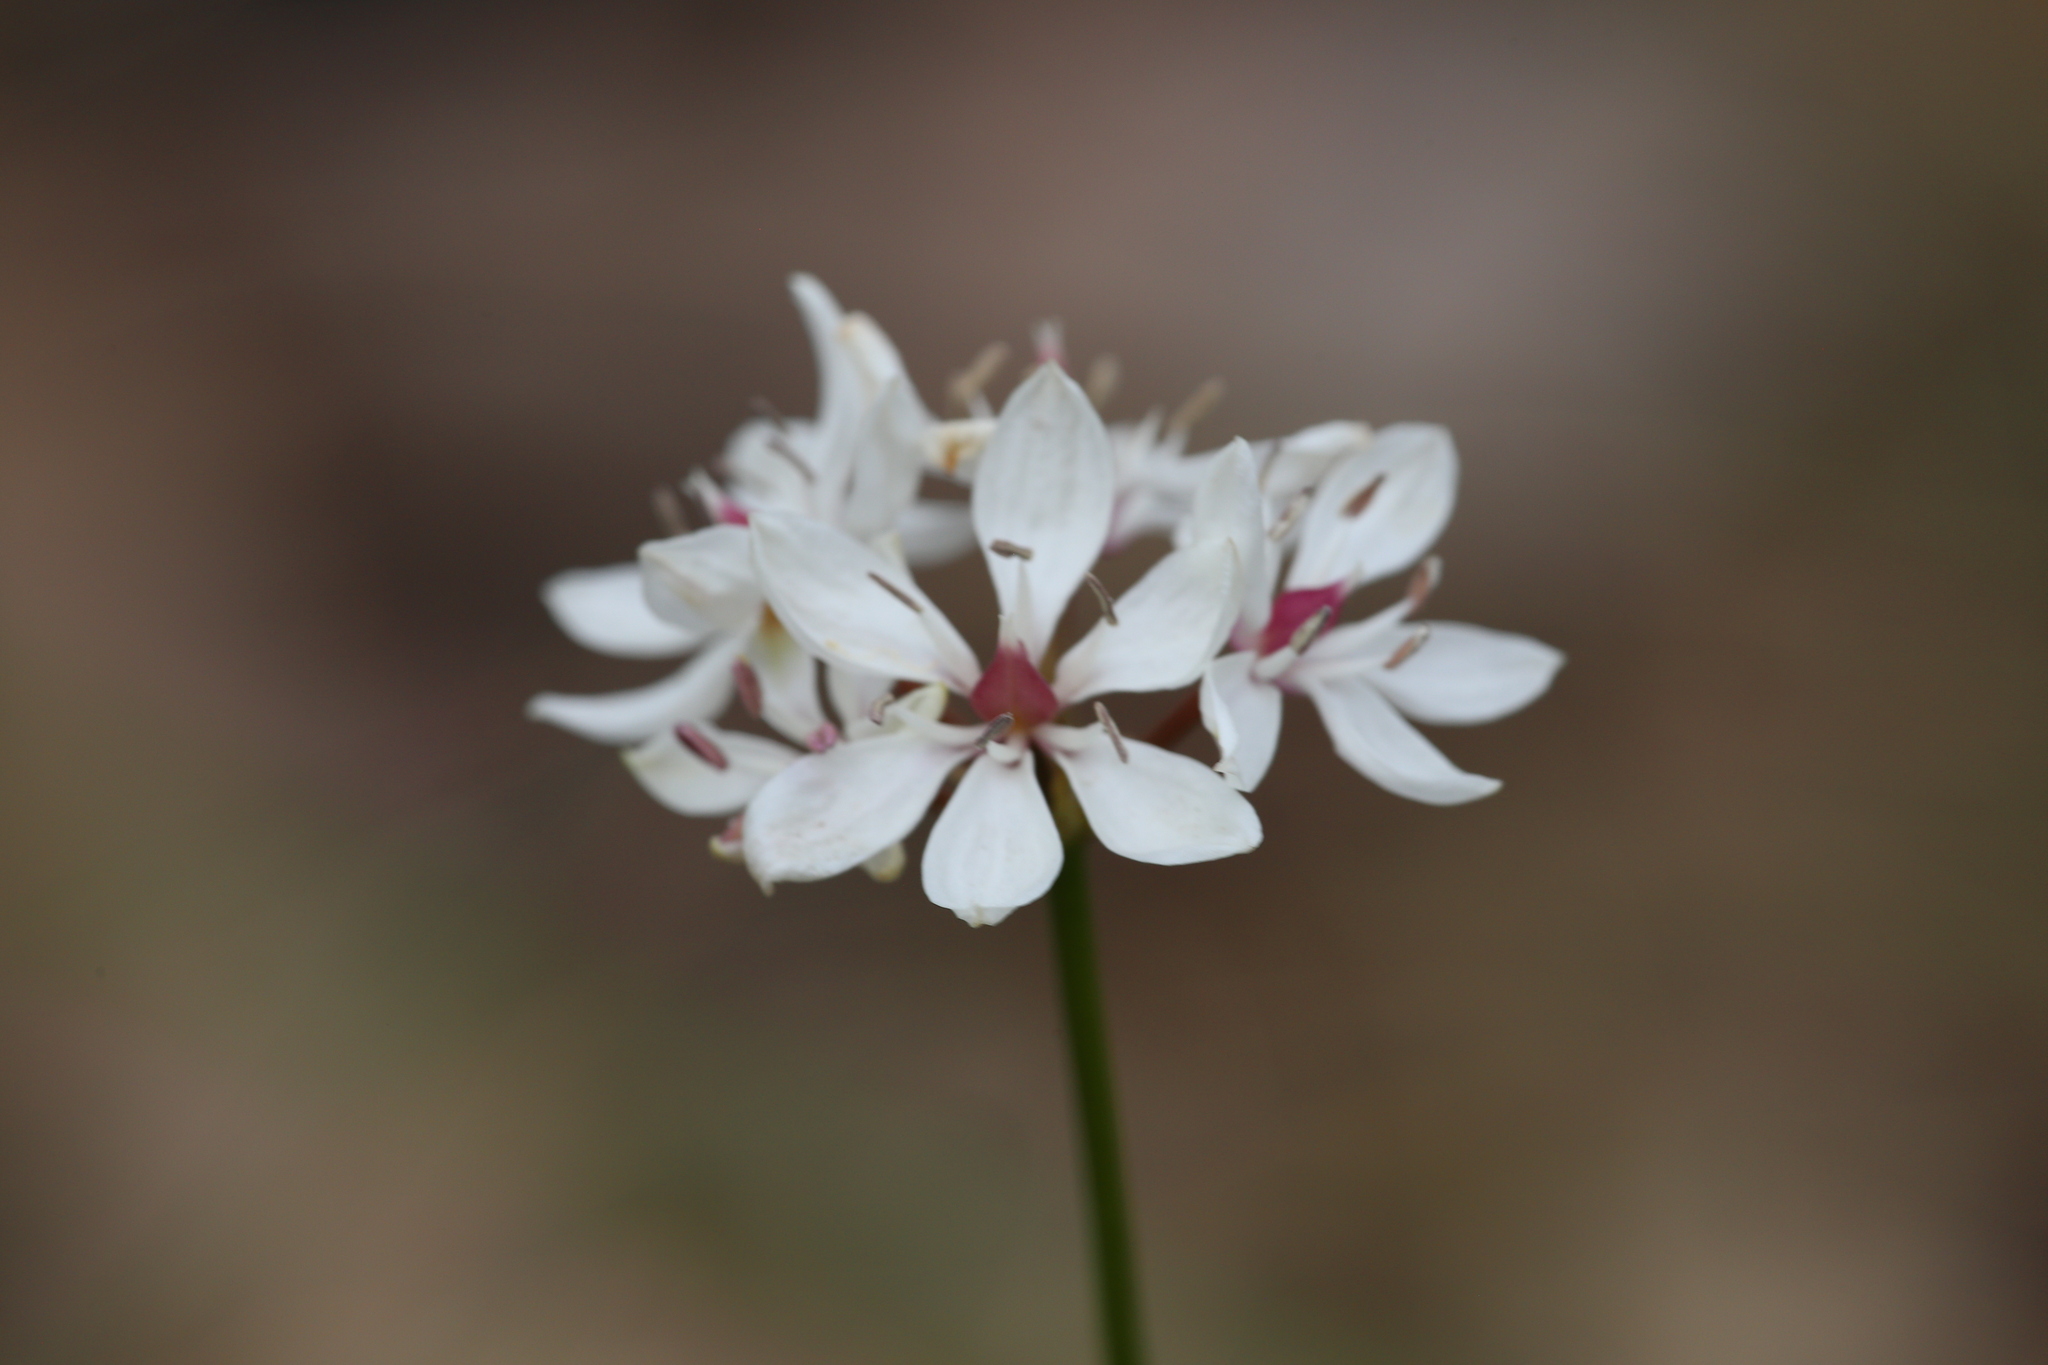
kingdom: Plantae
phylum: Tracheophyta
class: Liliopsida
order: Liliales
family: Colchicaceae
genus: Burchardia
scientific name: Burchardia umbellata
